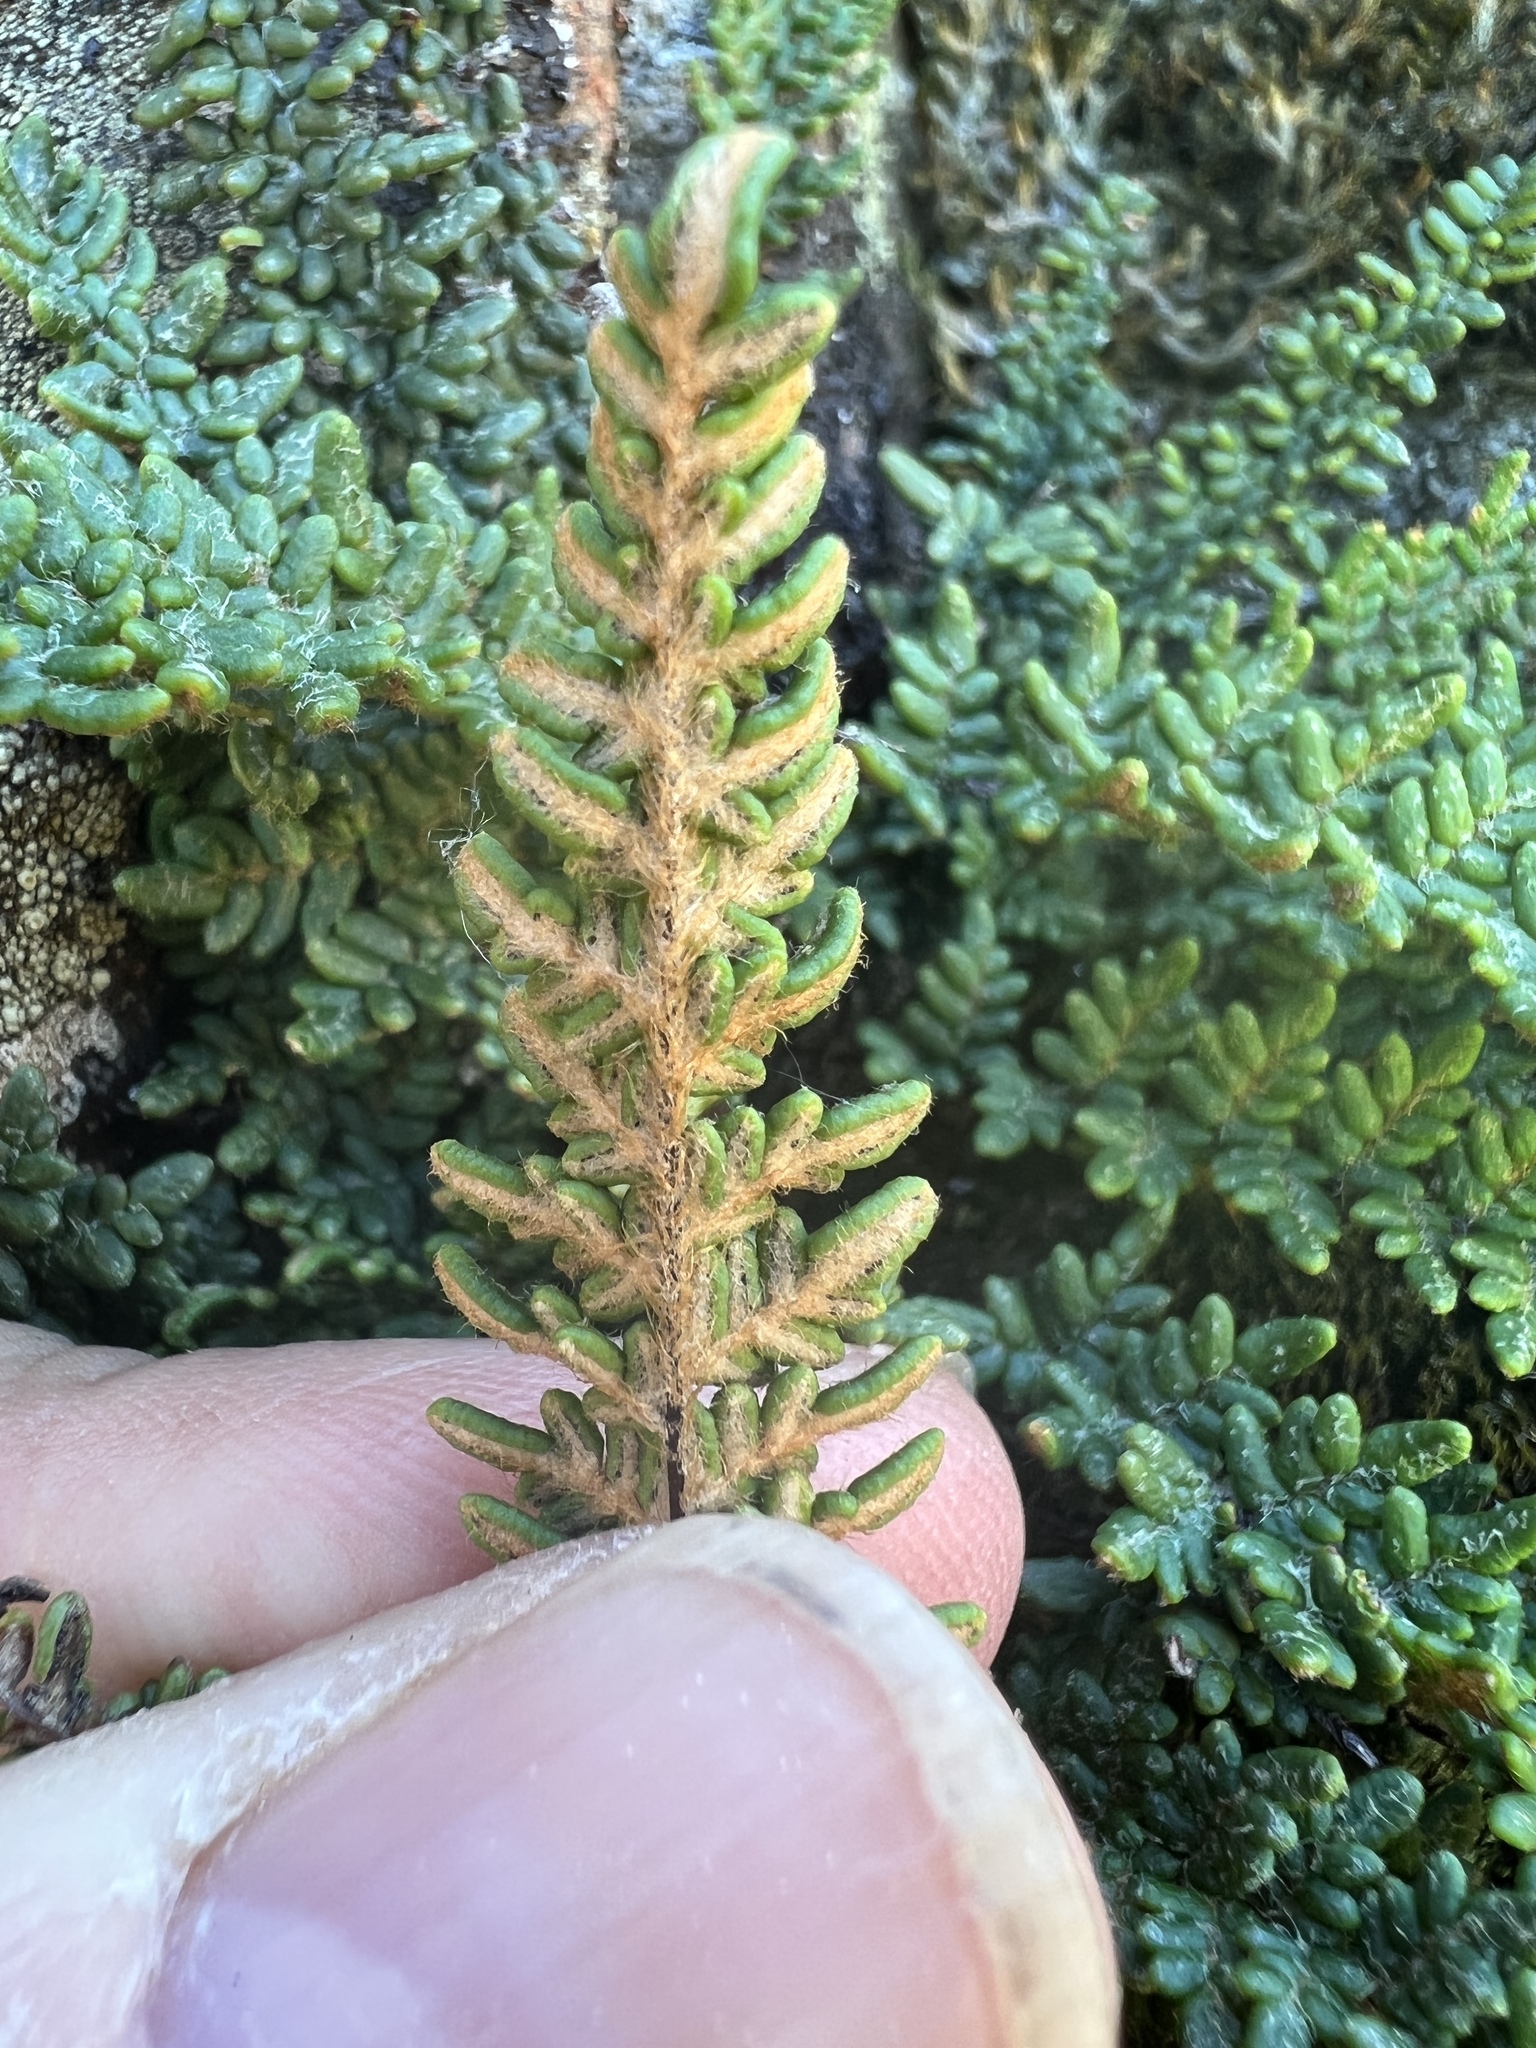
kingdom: Plantae
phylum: Tracheophyta
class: Polypodiopsida
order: Polypodiales
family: Pteridaceae
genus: Myriopteris
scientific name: Myriopteris gracillima
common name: Lace fern
